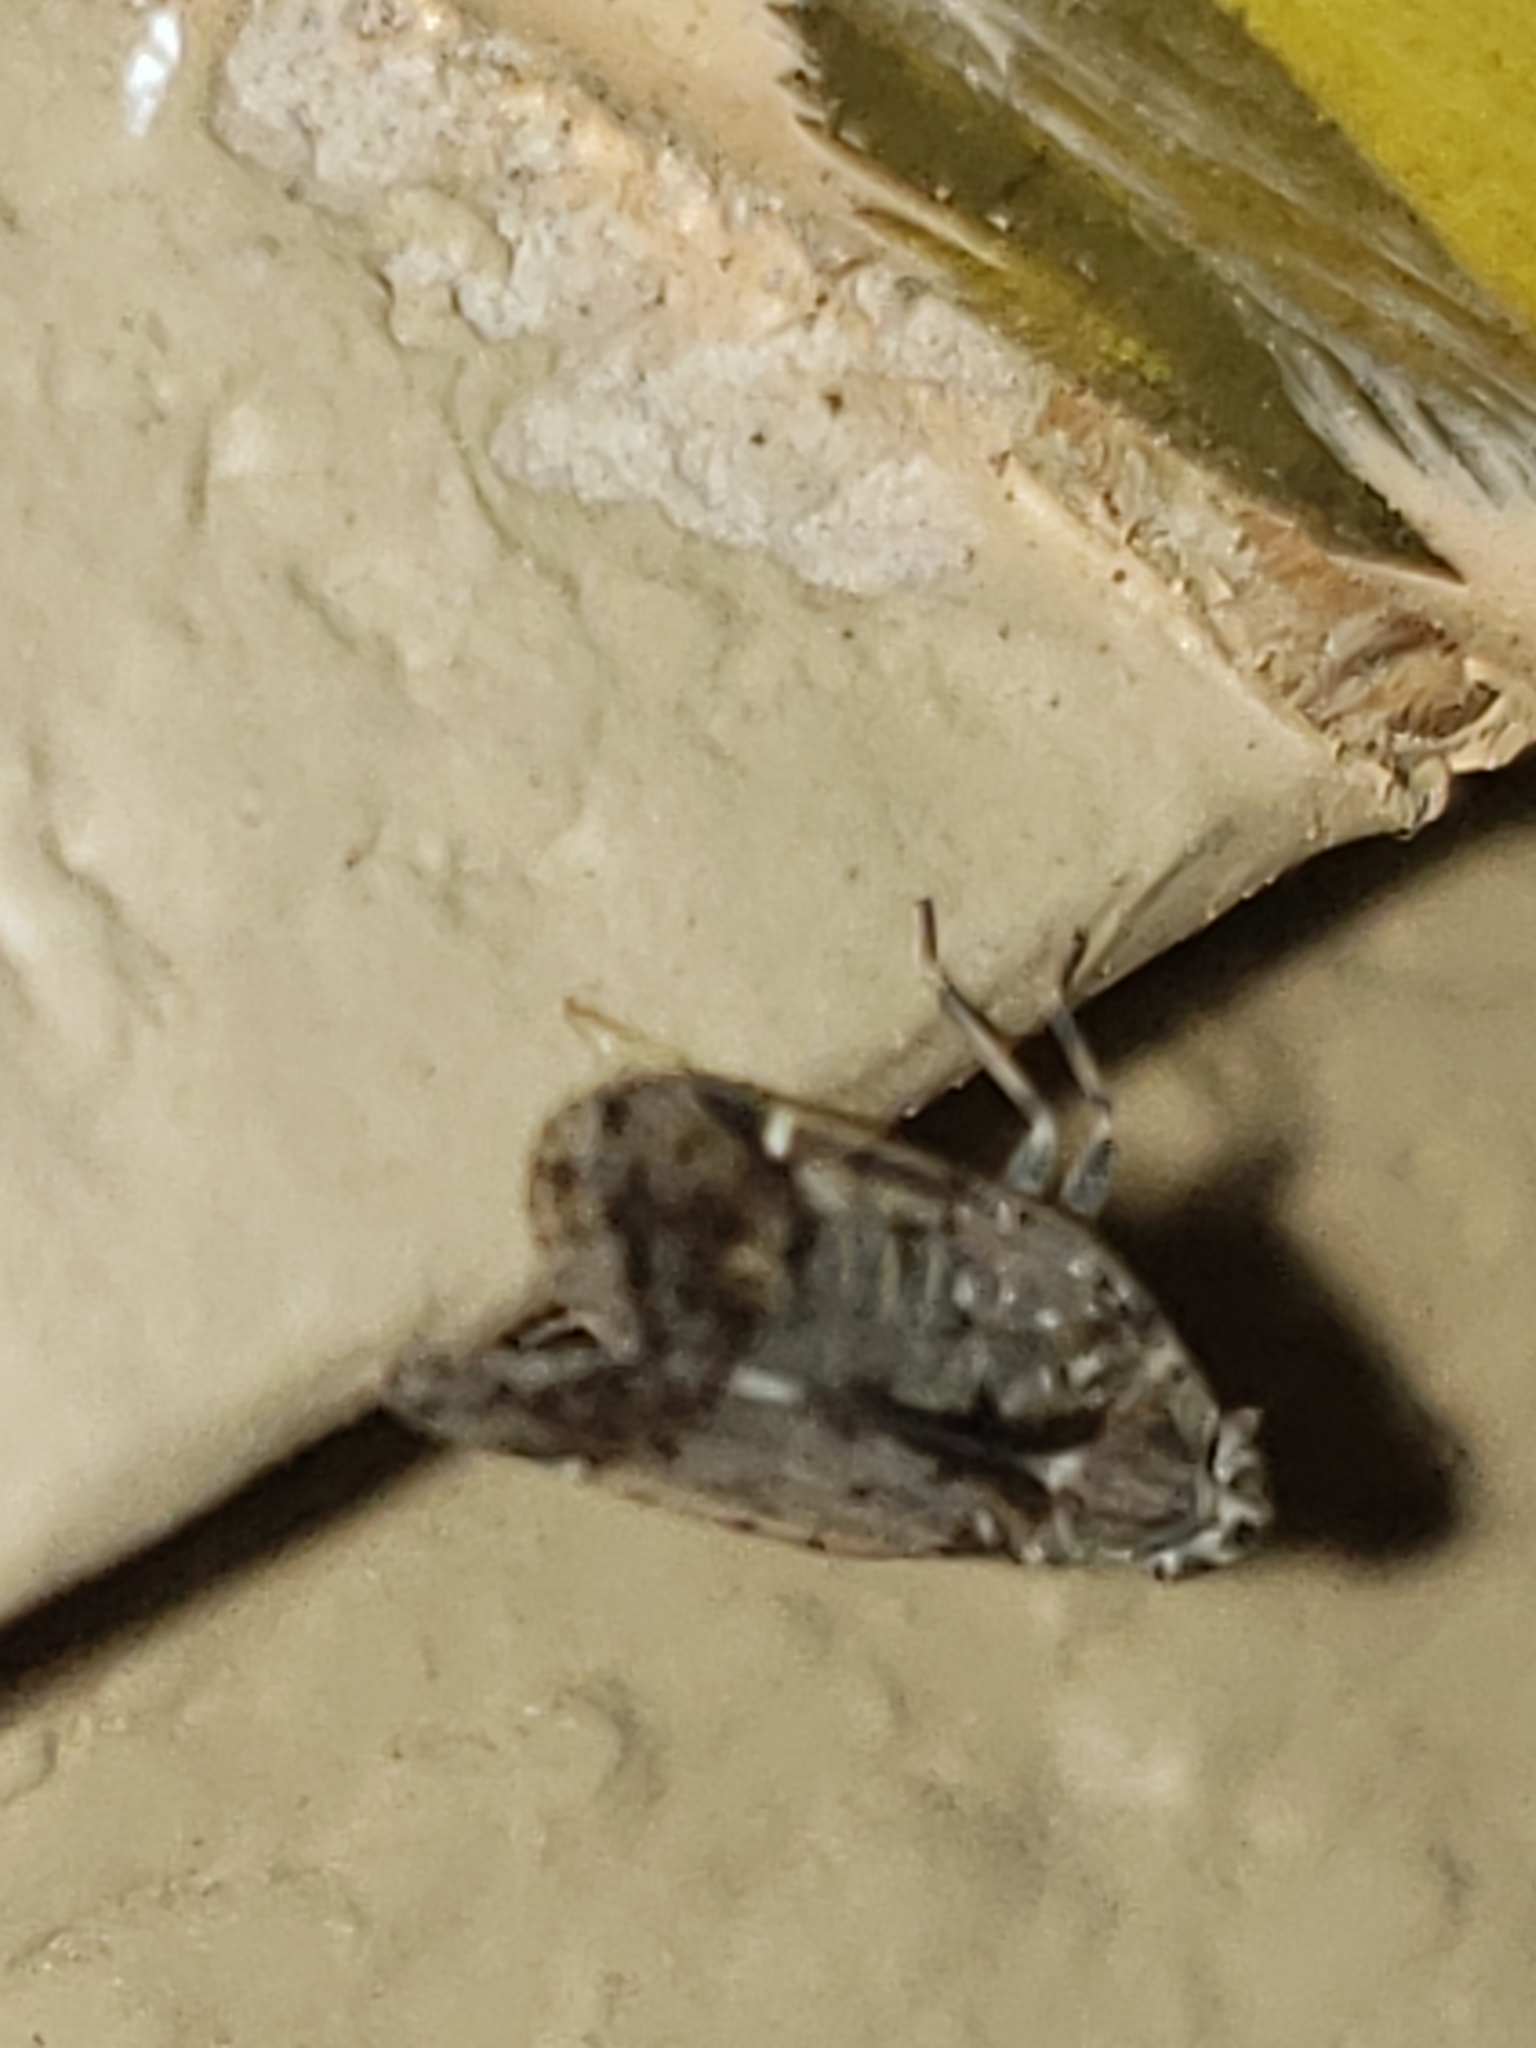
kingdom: Animalia
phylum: Arthropoda
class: Insecta
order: Hemiptera
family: Cixiidae
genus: Melanoliarus
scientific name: Melanoliarus placitus
